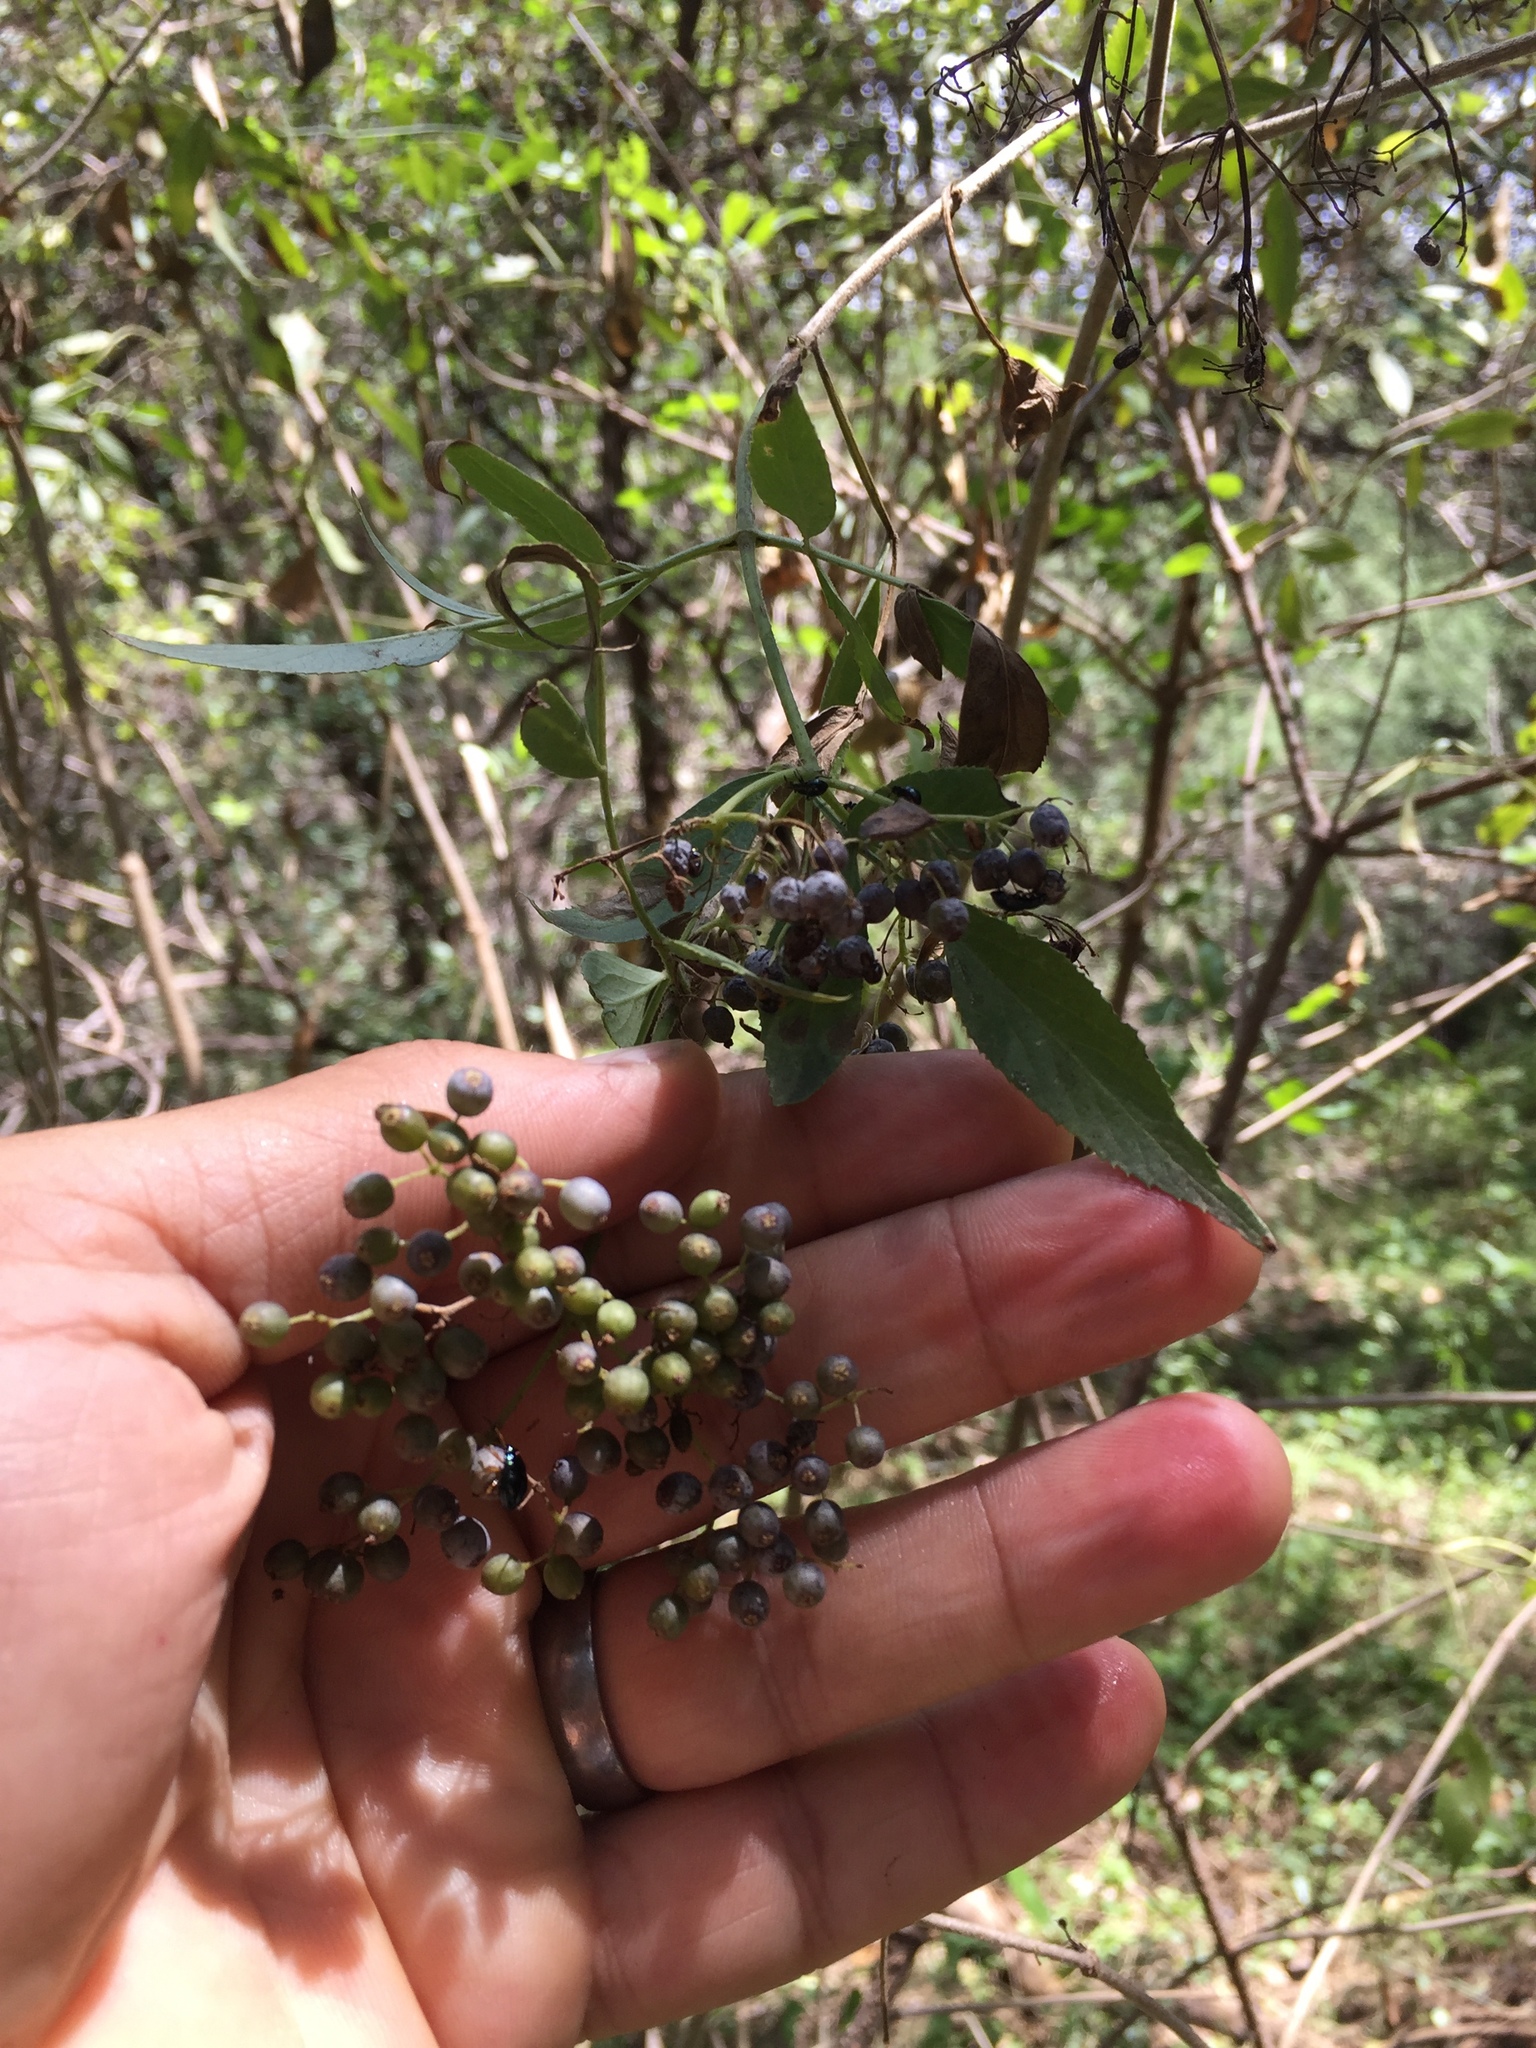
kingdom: Plantae
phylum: Tracheophyta
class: Magnoliopsida
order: Dipsacales
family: Viburnaceae
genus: Sambucus
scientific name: Sambucus cerulea
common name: Blue elder
